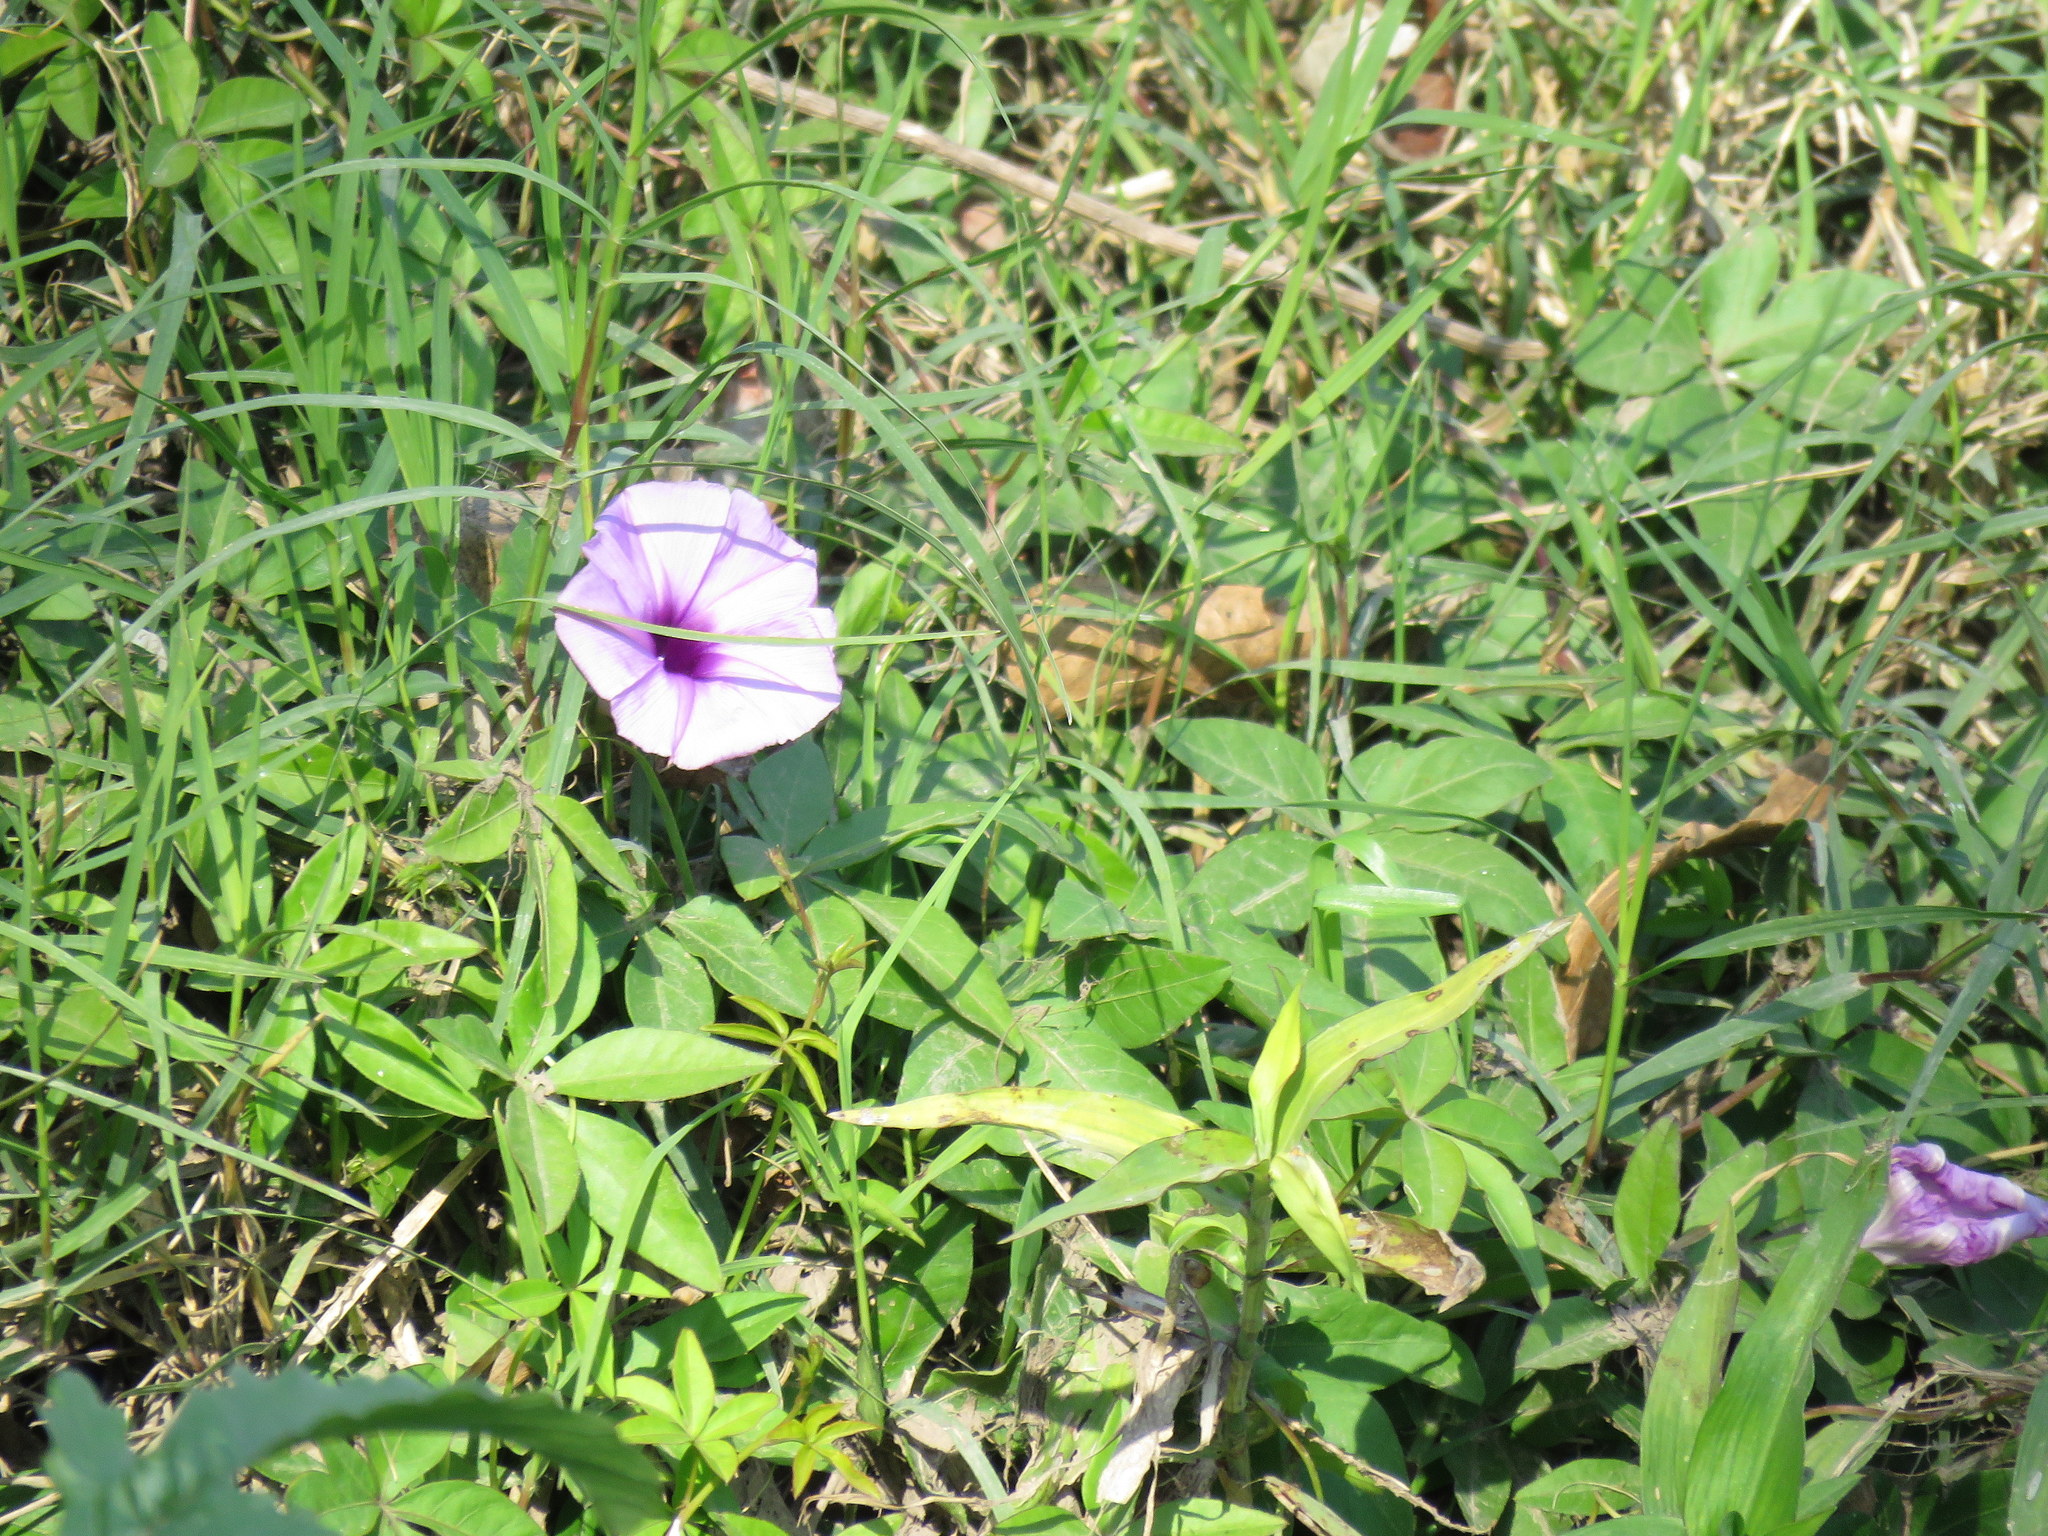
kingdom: Plantae
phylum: Tracheophyta
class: Magnoliopsida
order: Solanales
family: Convolvulaceae
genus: Ipomoea
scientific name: Ipomoea cairica
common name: Mile a minute vine
